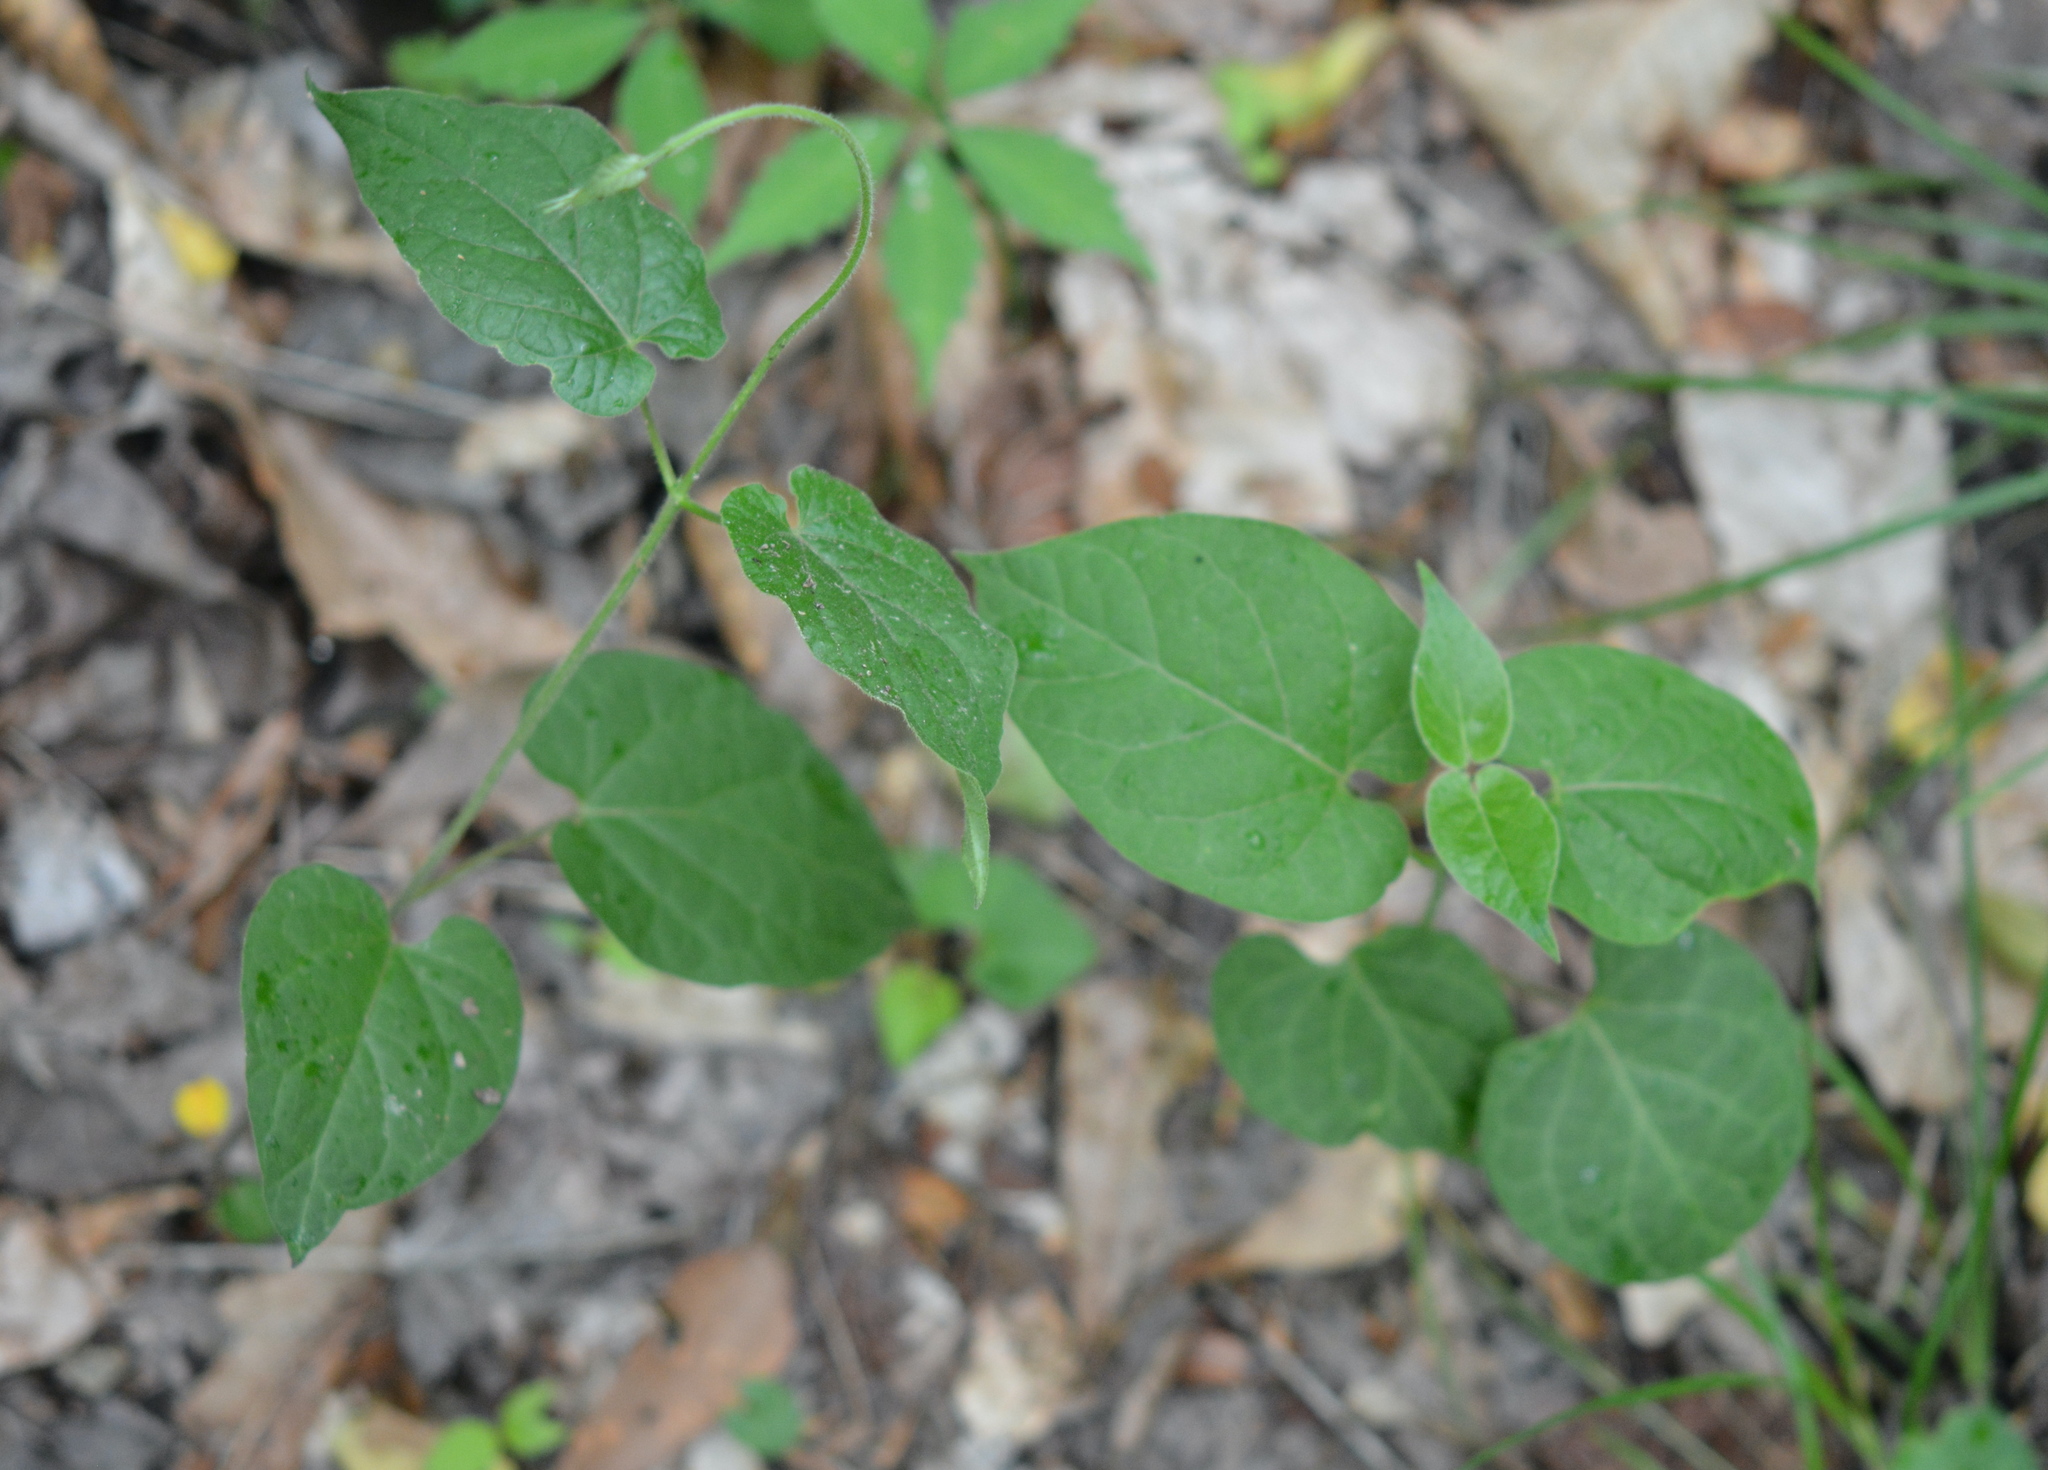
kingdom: Plantae
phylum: Tracheophyta
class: Magnoliopsida
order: Gentianales
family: Apocynaceae
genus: Gonolobus
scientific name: Gonolobus suberosus
